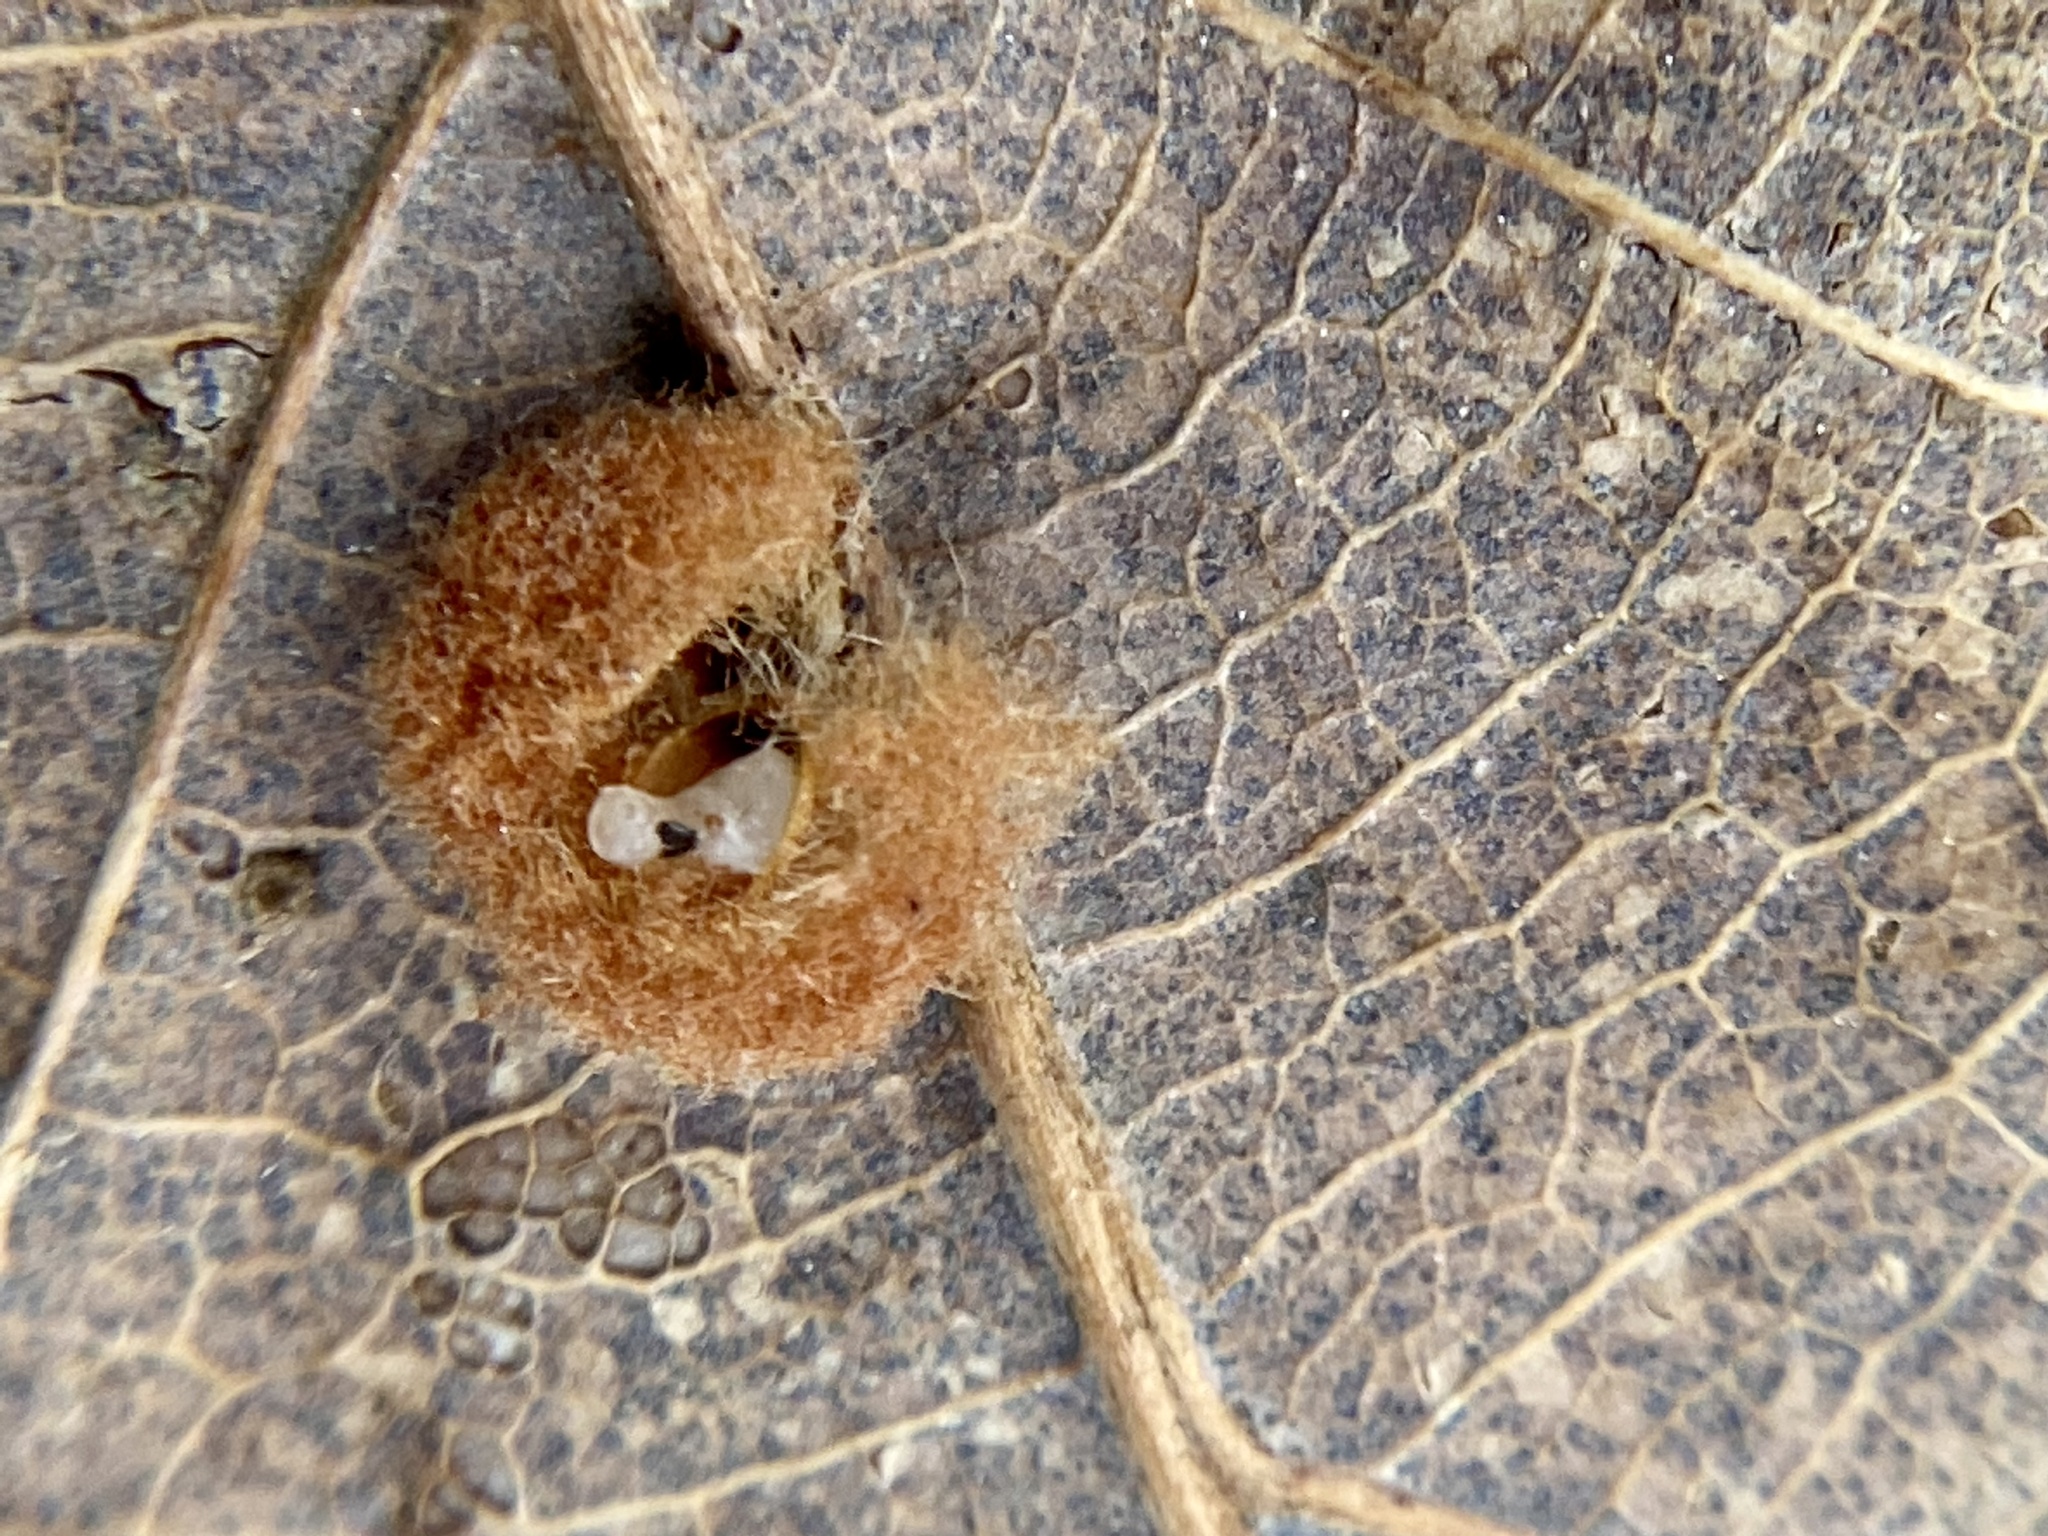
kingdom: Animalia
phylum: Arthropoda
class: Insecta
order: Hymenoptera
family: Cynipidae
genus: Andricus
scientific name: Andricus quercusflocci
